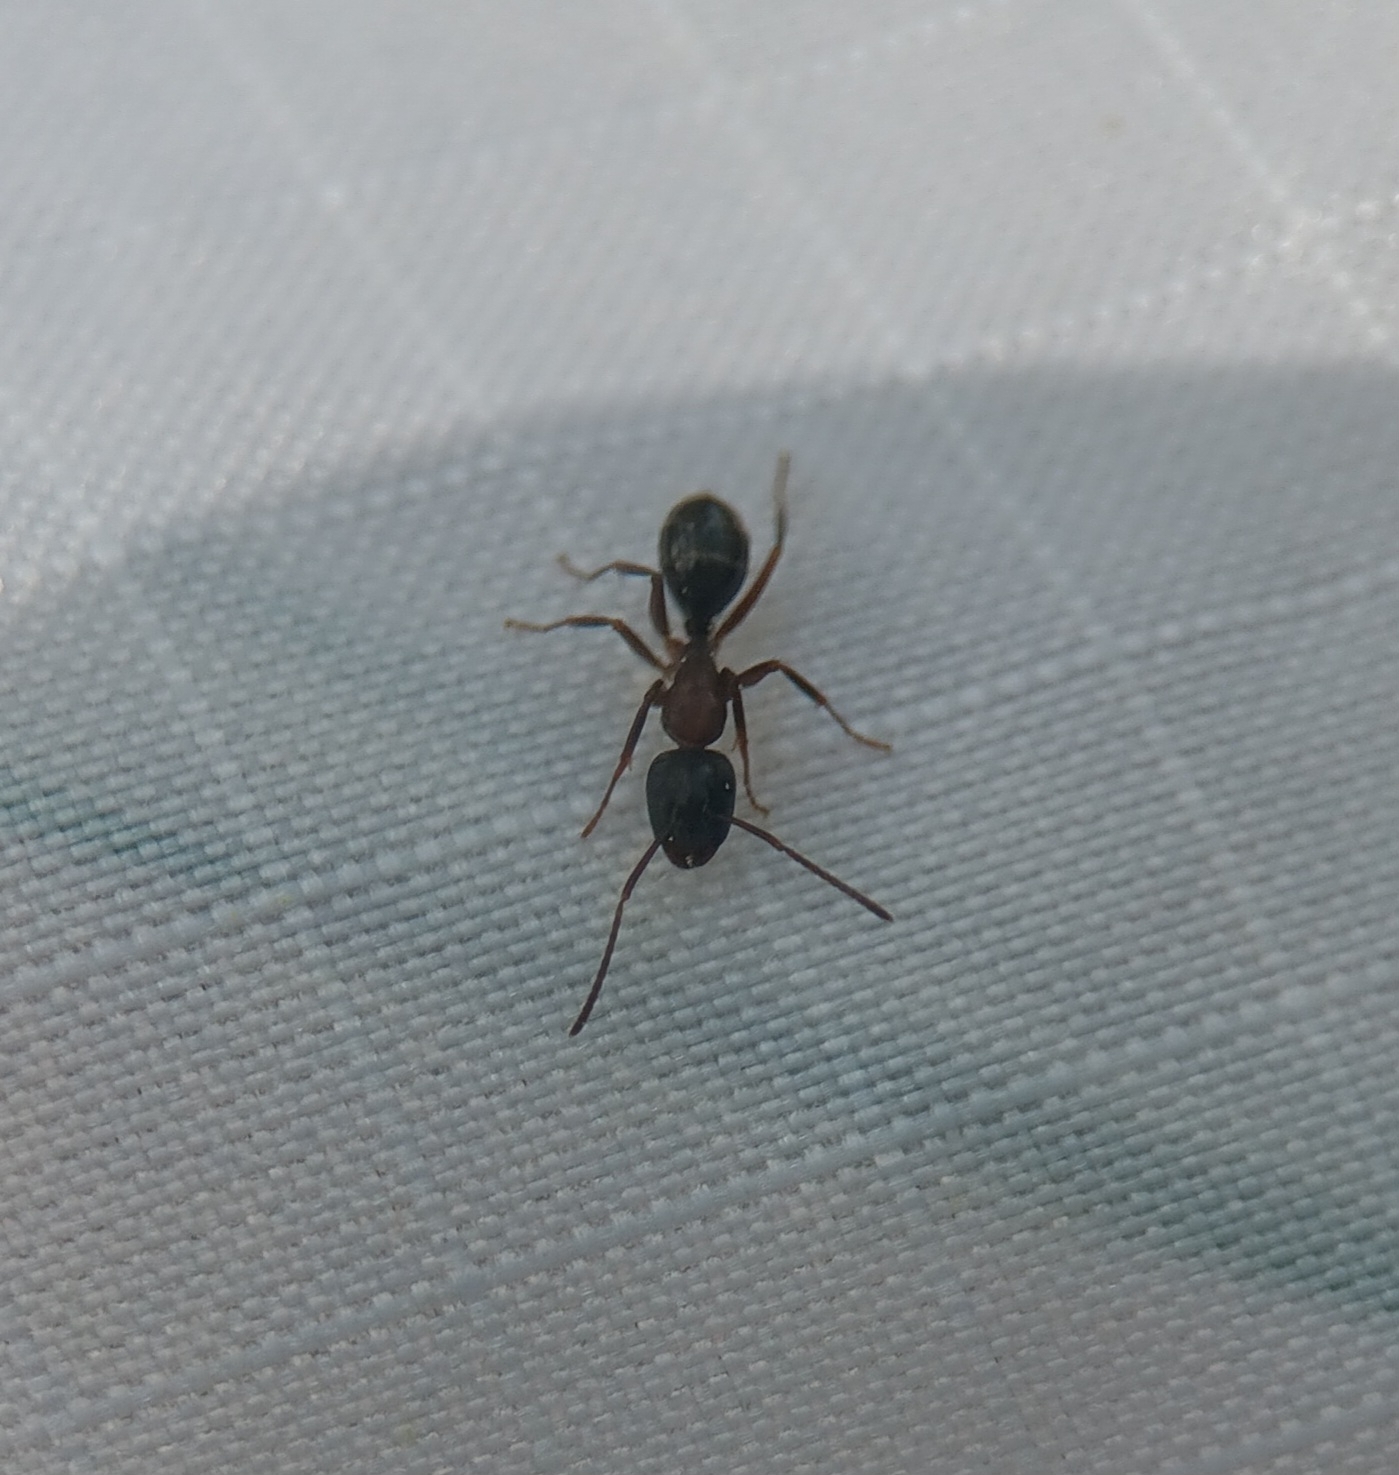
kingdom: Animalia
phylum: Arthropoda
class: Insecta
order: Hymenoptera
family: Formicidae
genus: Camponotus
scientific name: Camponotus nearcticus
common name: Smaller carpenter ant
